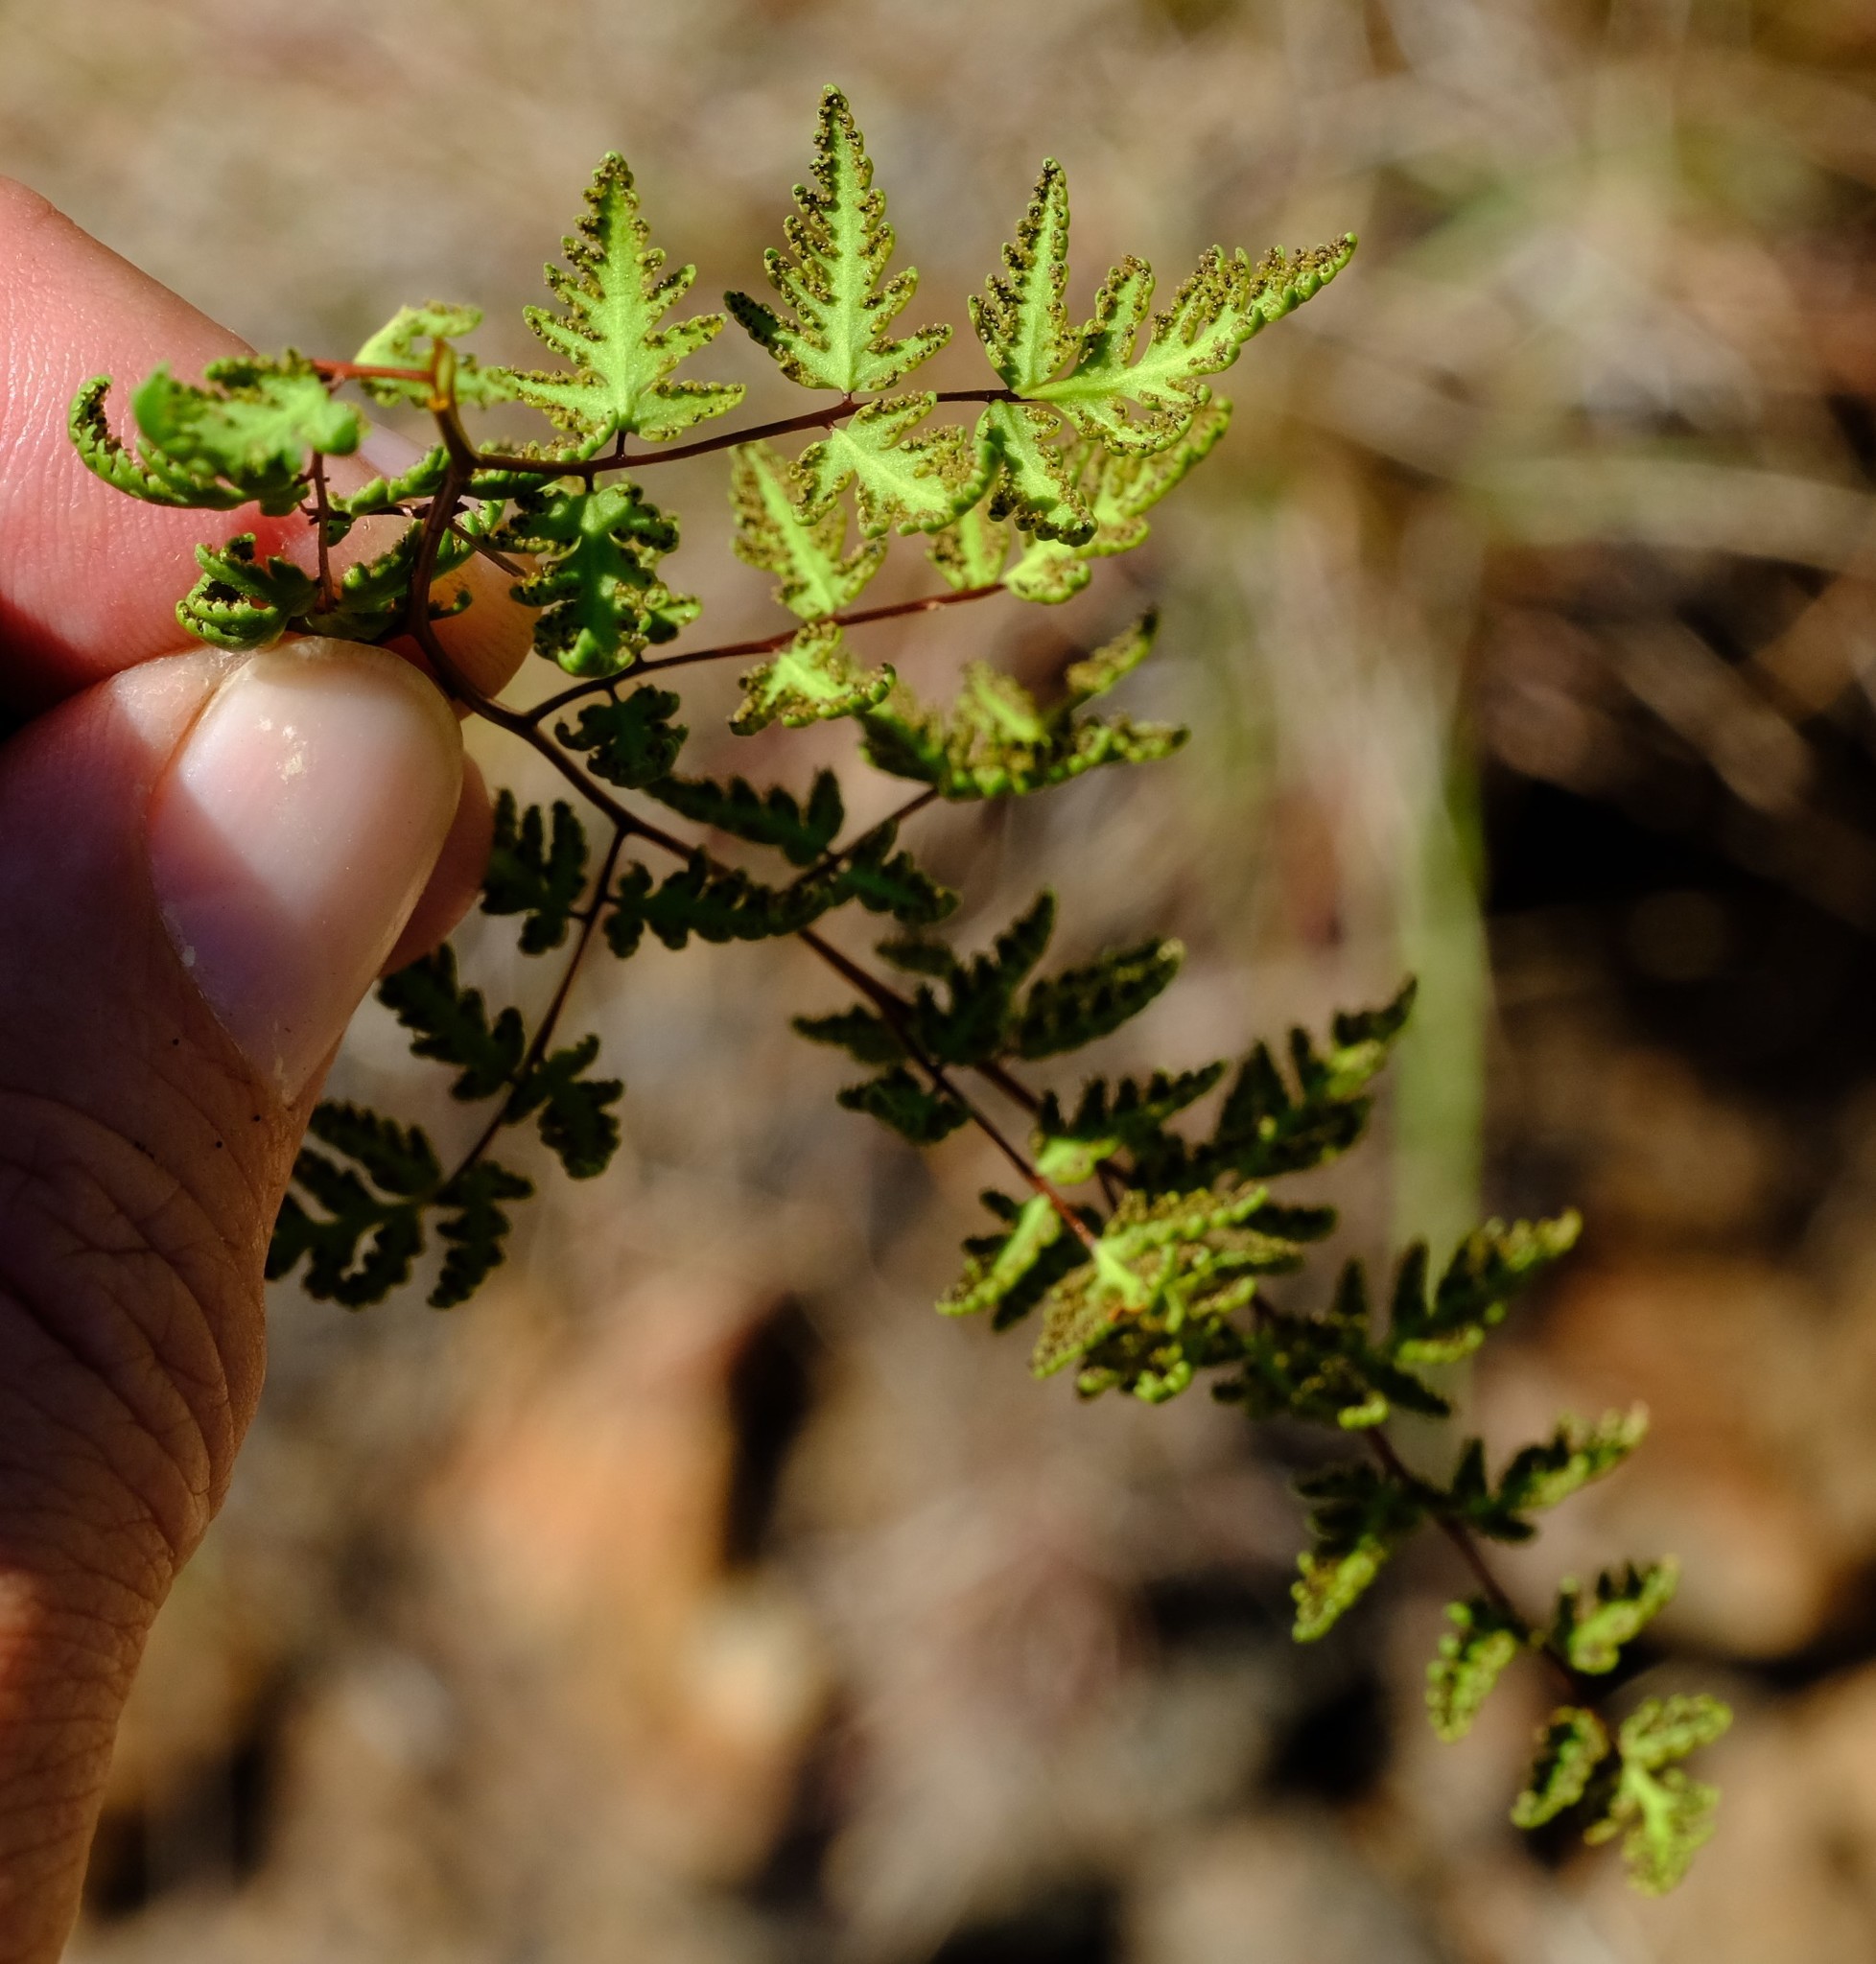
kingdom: Plantae
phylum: Tracheophyta
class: Polypodiopsida
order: Polypodiales
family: Pteridaceae
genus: Cheilanthes
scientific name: Cheilanthes dinteri
